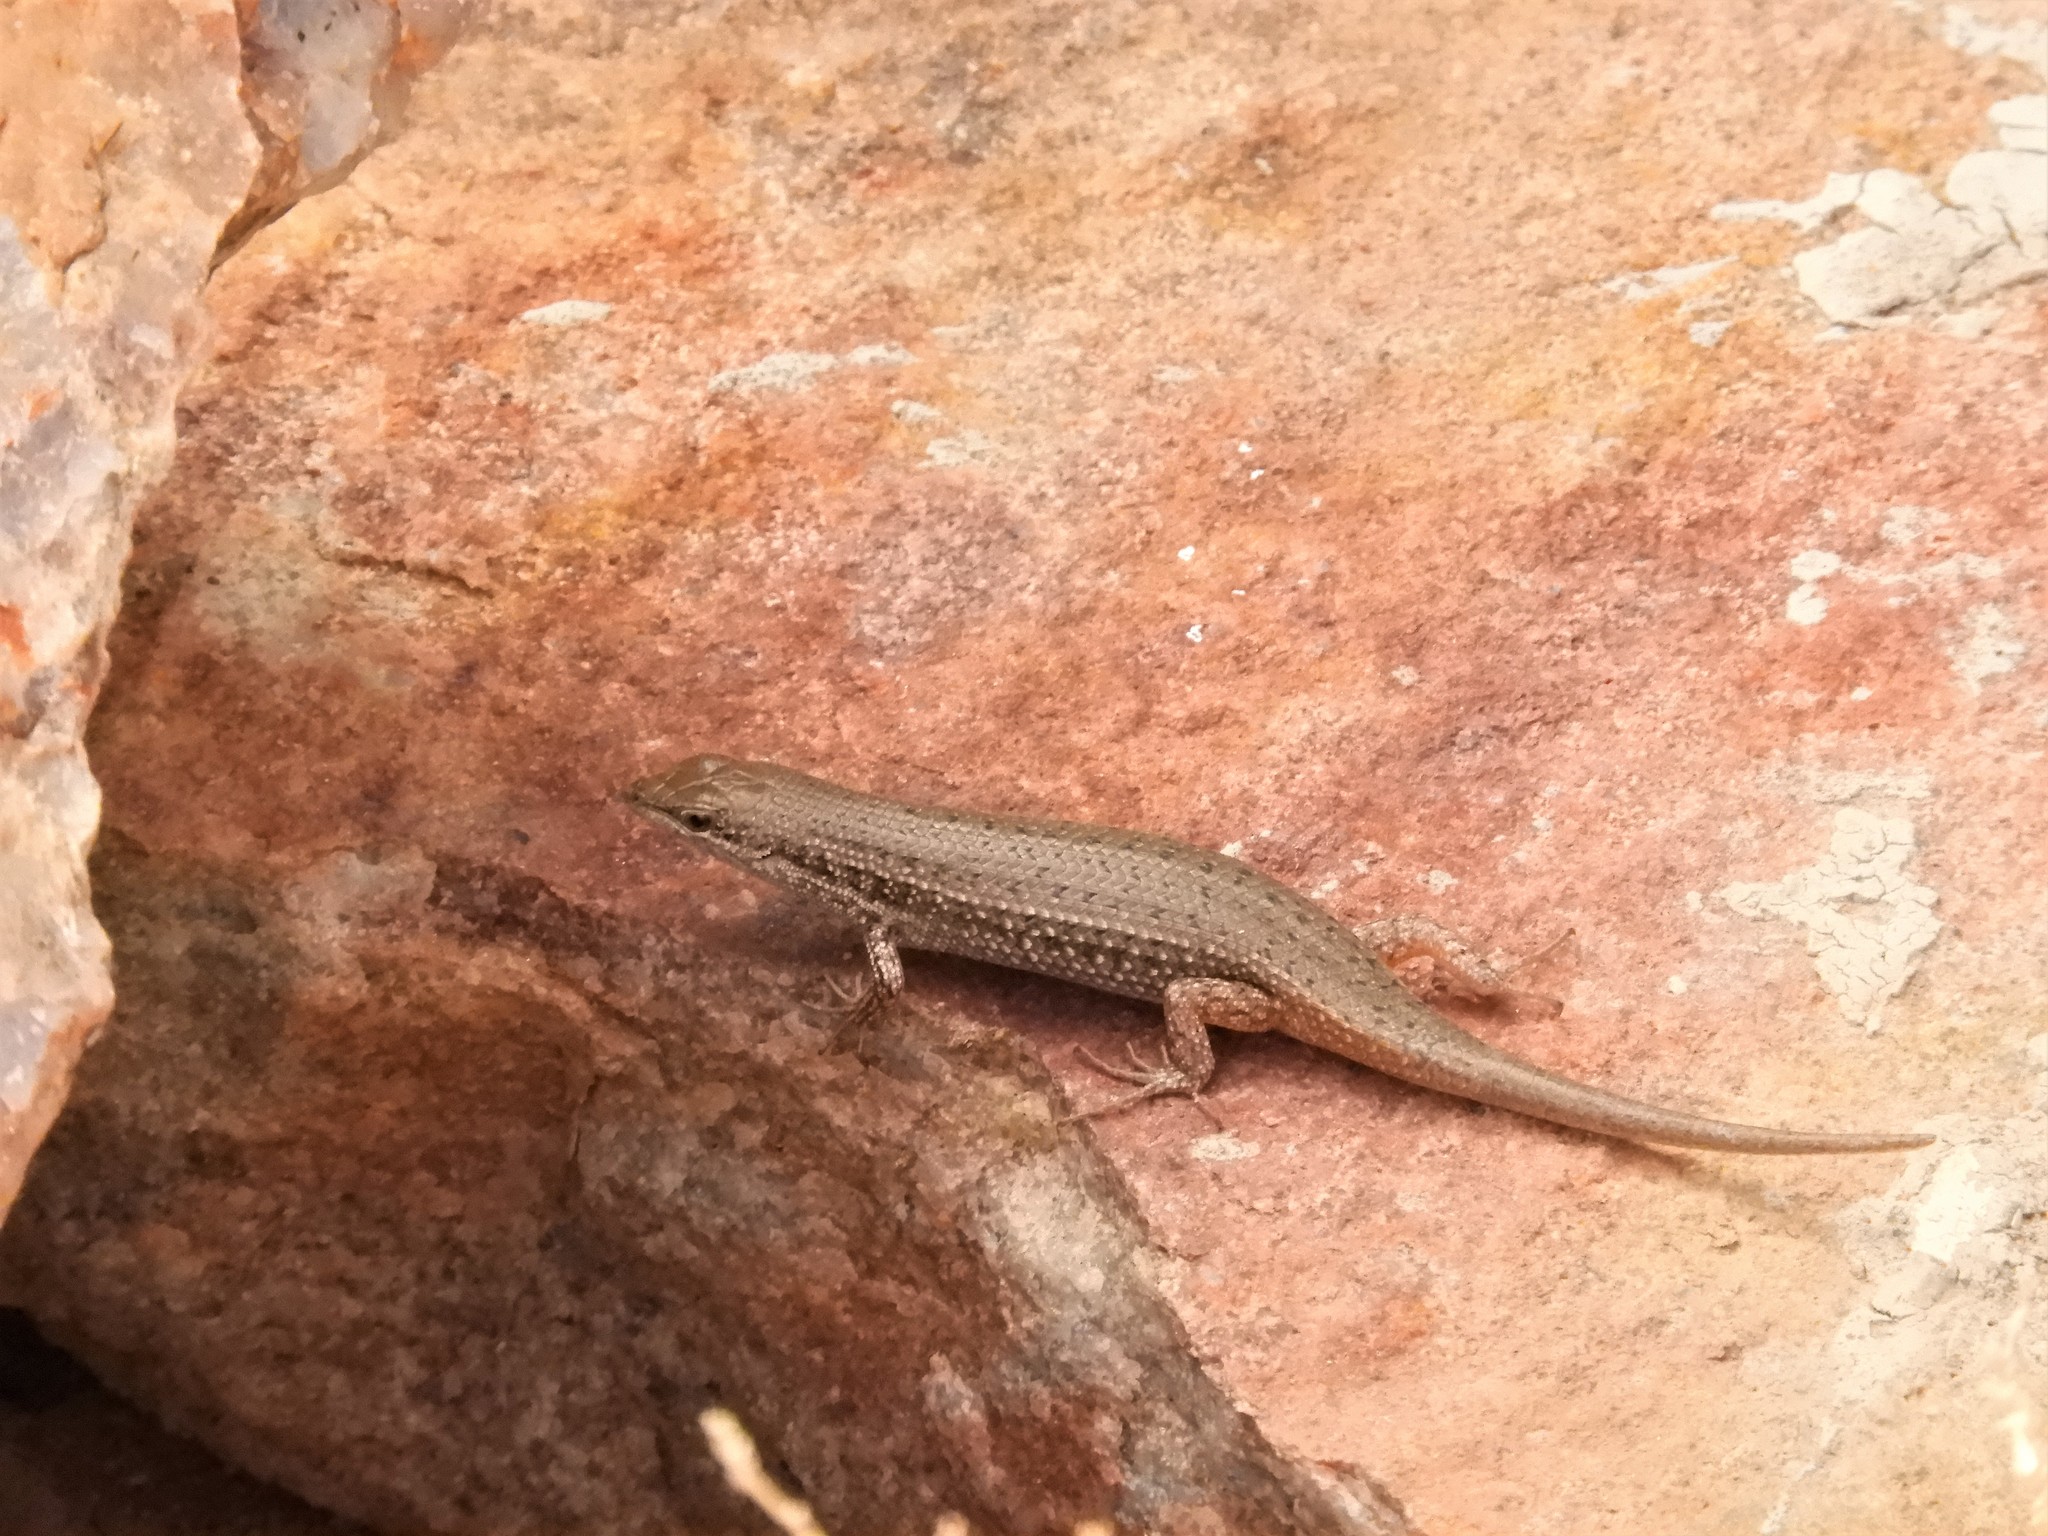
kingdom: Animalia
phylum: Chordata
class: Squamata
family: Scincidae
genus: Trachylepis
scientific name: Trachylepis variegata
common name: Variegated skink
